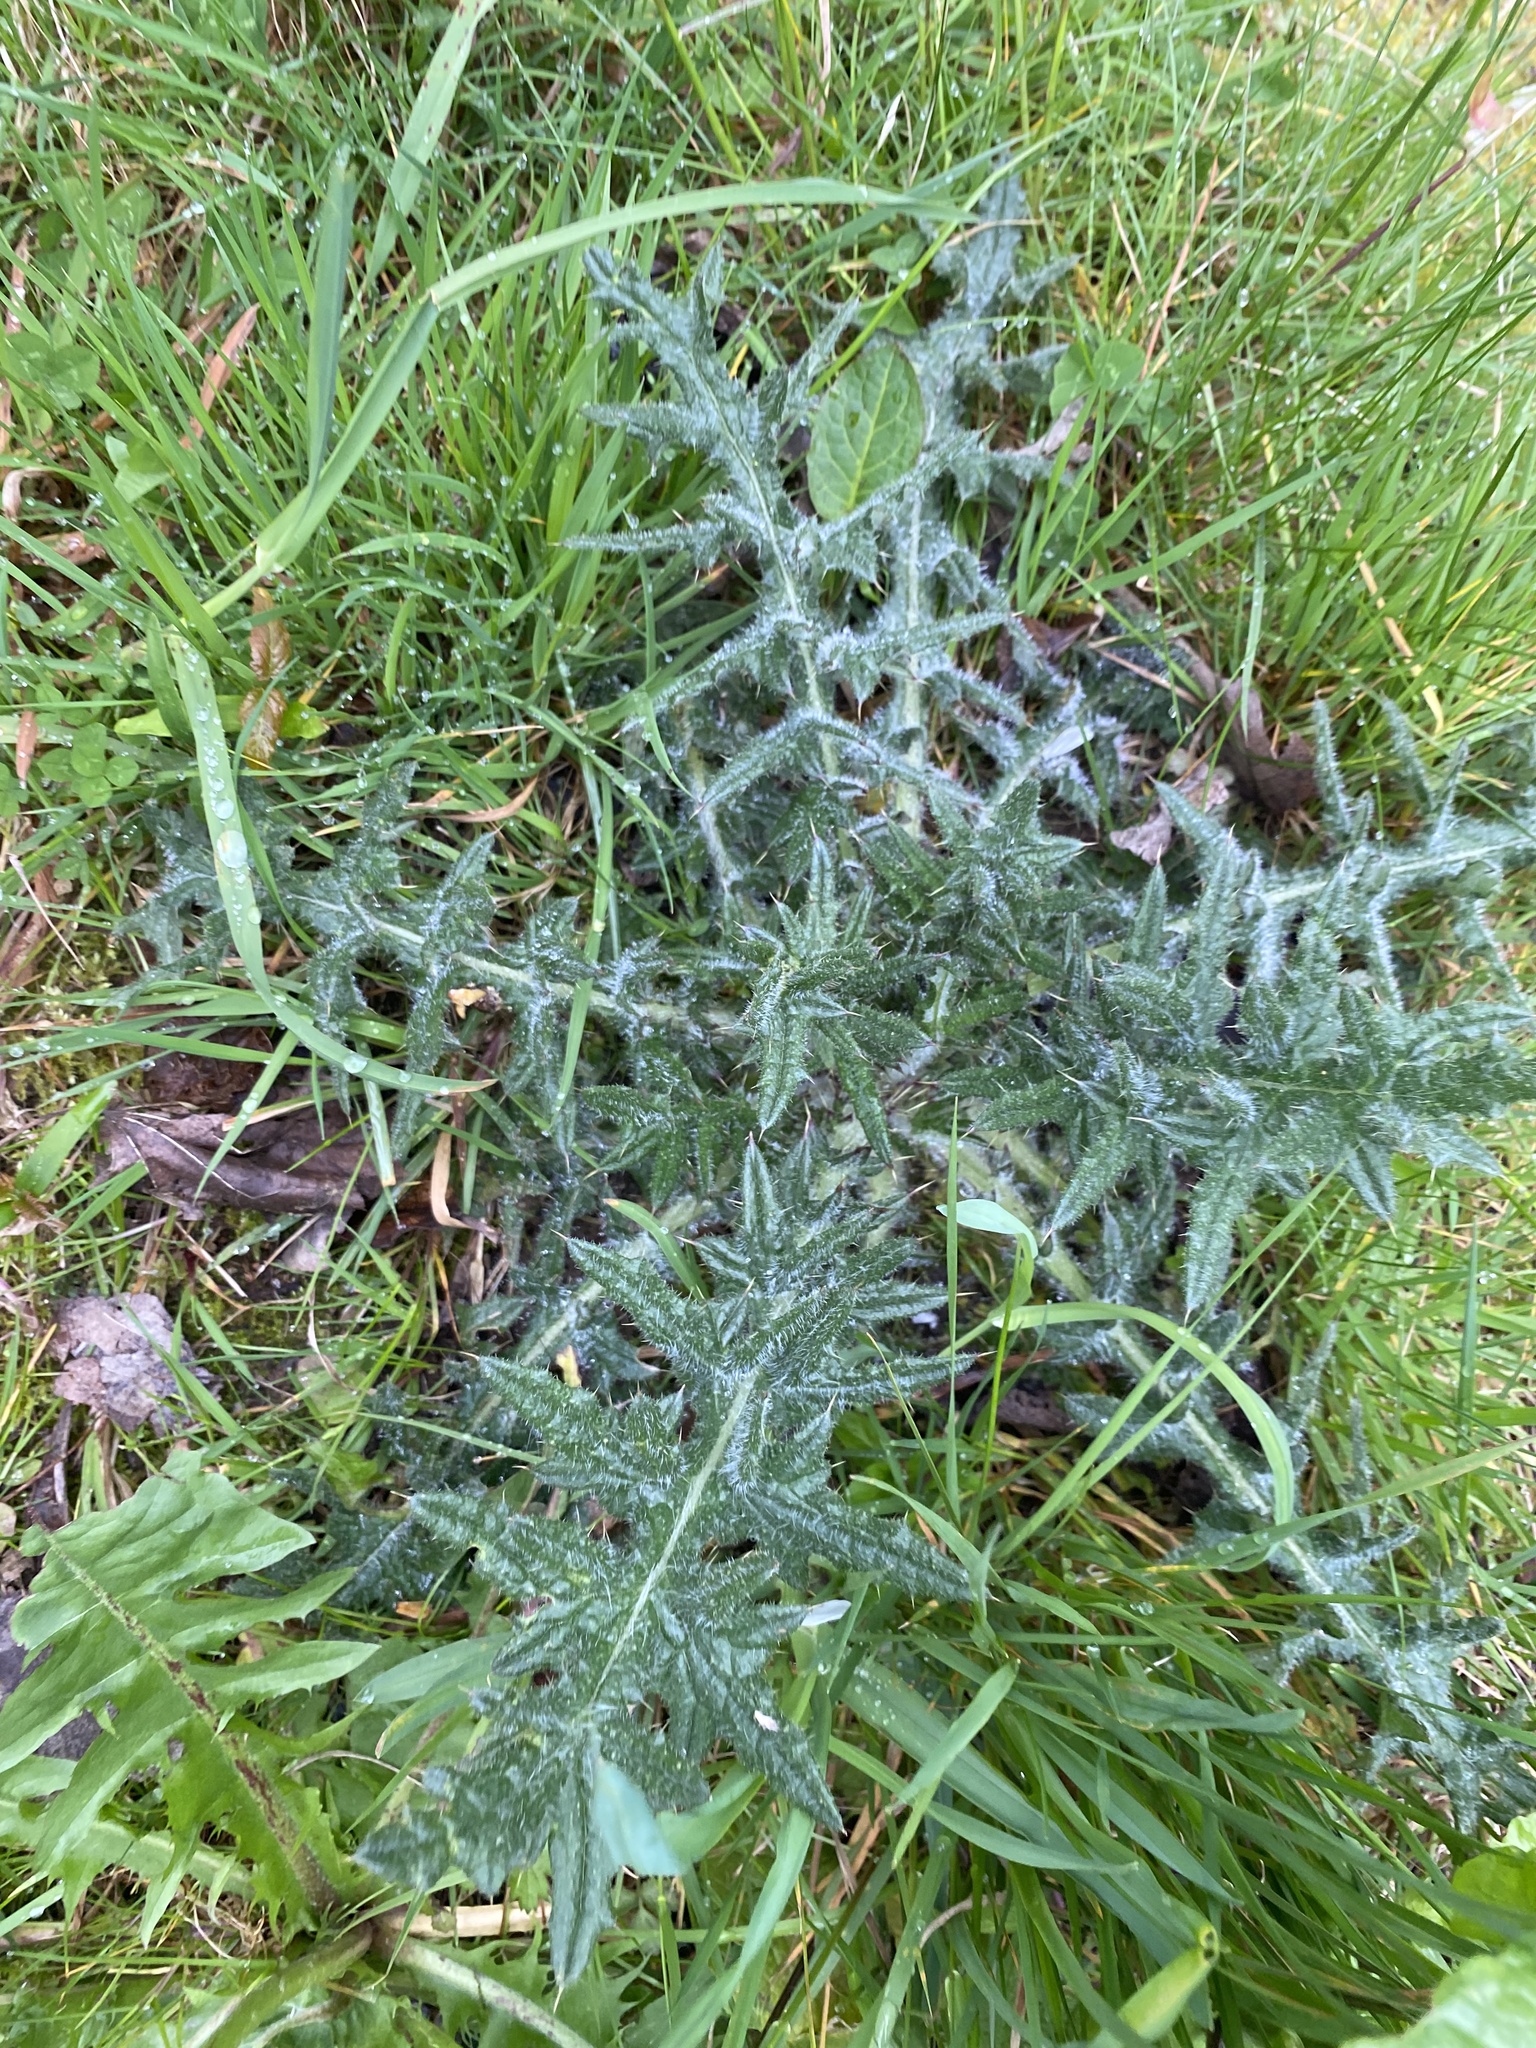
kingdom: Plantae
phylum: Tracheophyta
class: Magnoliopsida
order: Asterales
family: Asteraceae
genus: Cirsium
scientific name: Cirsium vulgare
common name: Bull thistle
